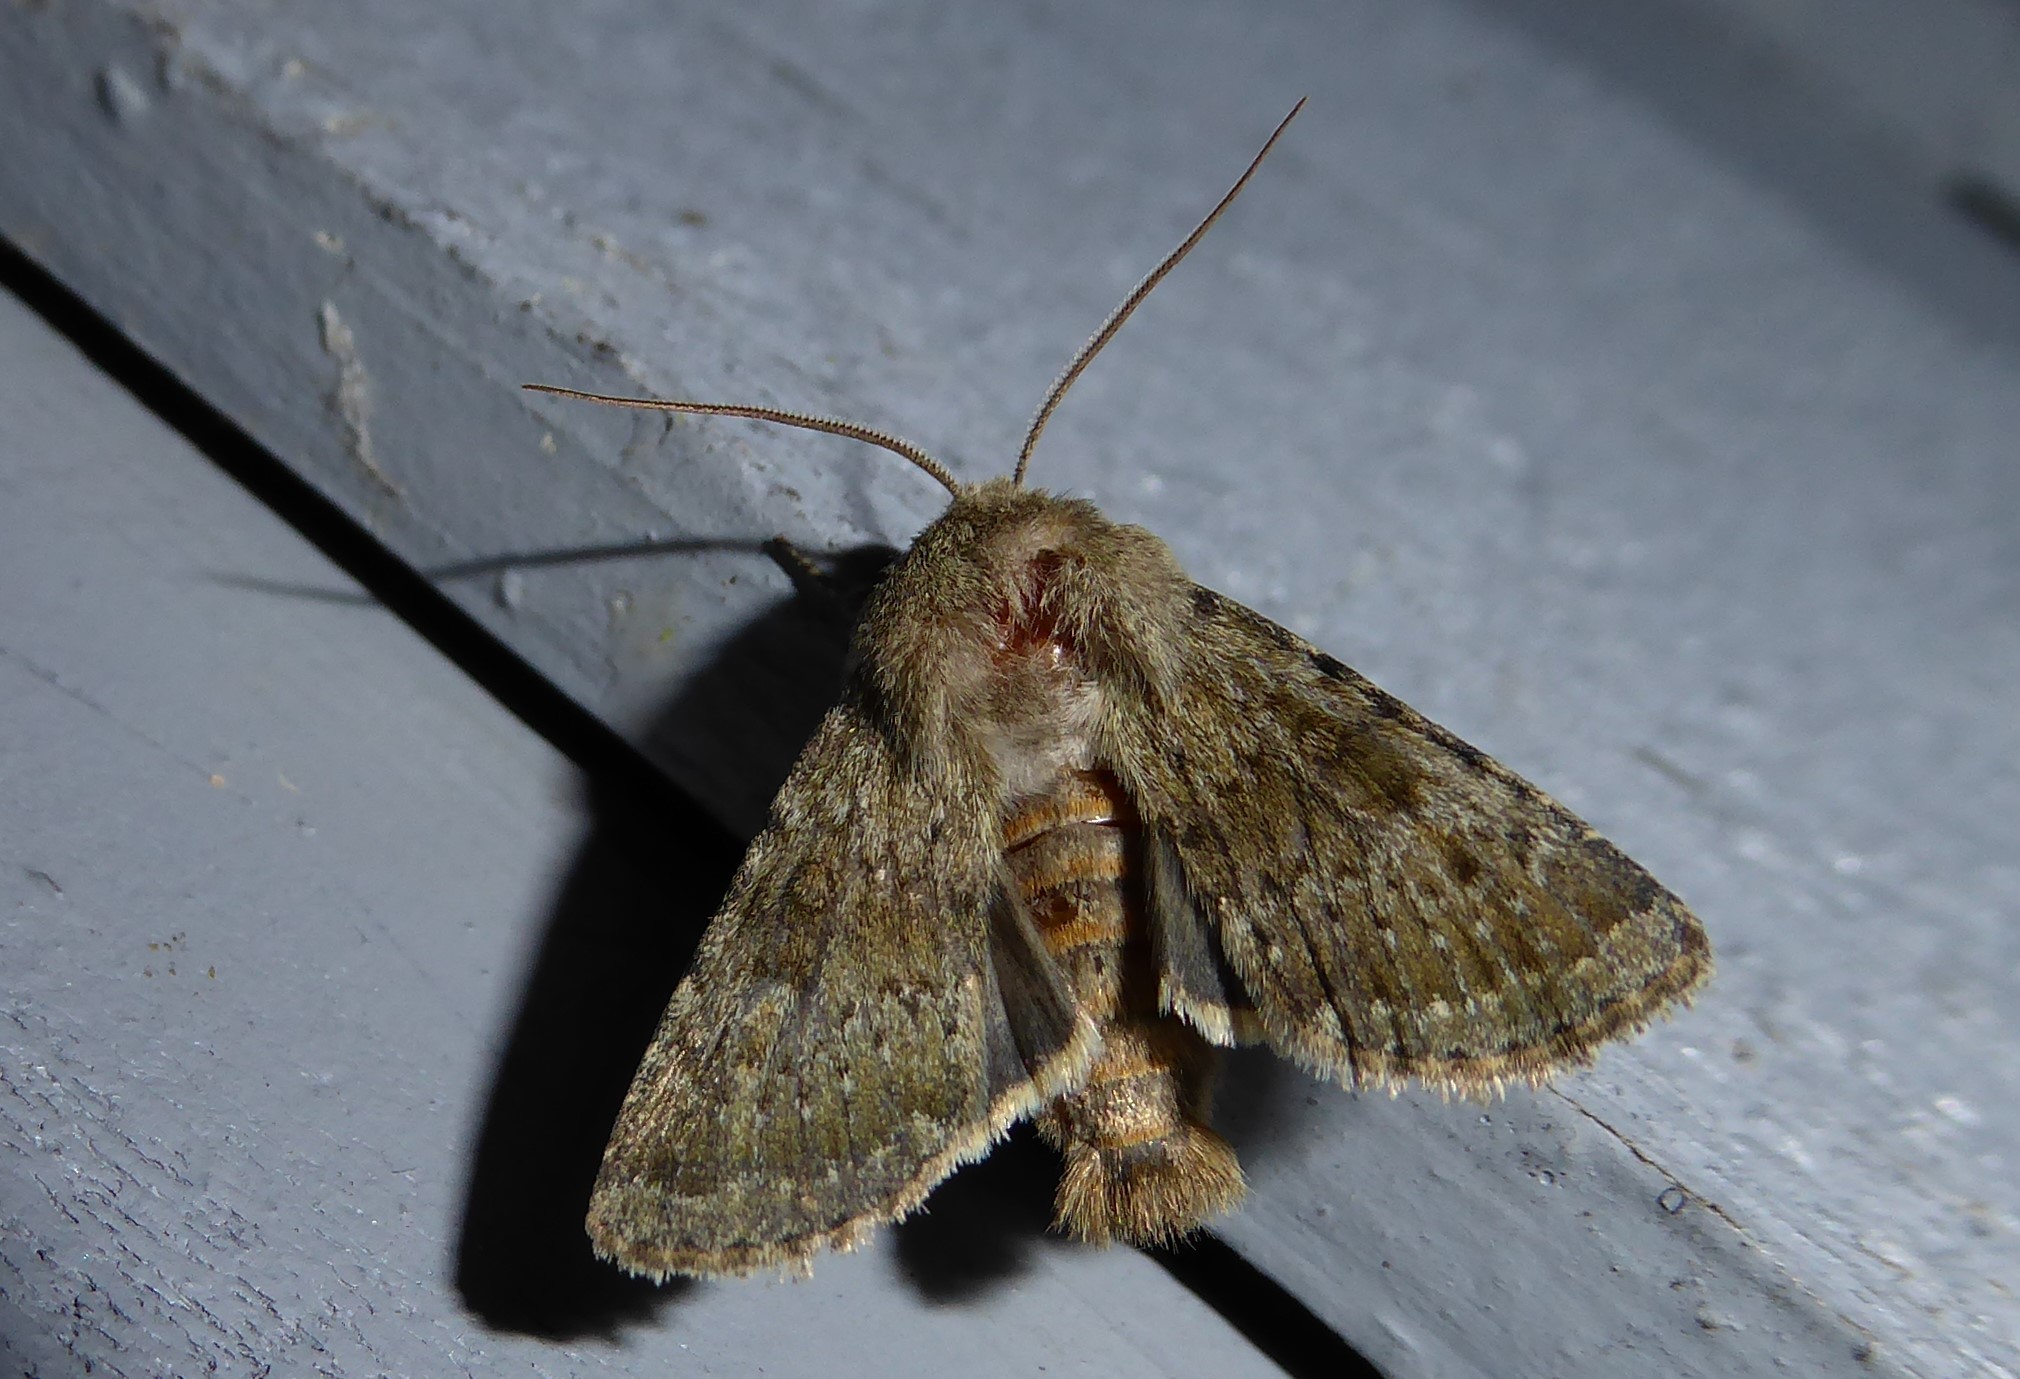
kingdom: Animalia
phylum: Arthropoda
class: Insecta
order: Lepidoptera
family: Noctuidae
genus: Ichneutica
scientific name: Ichneutica moderata
